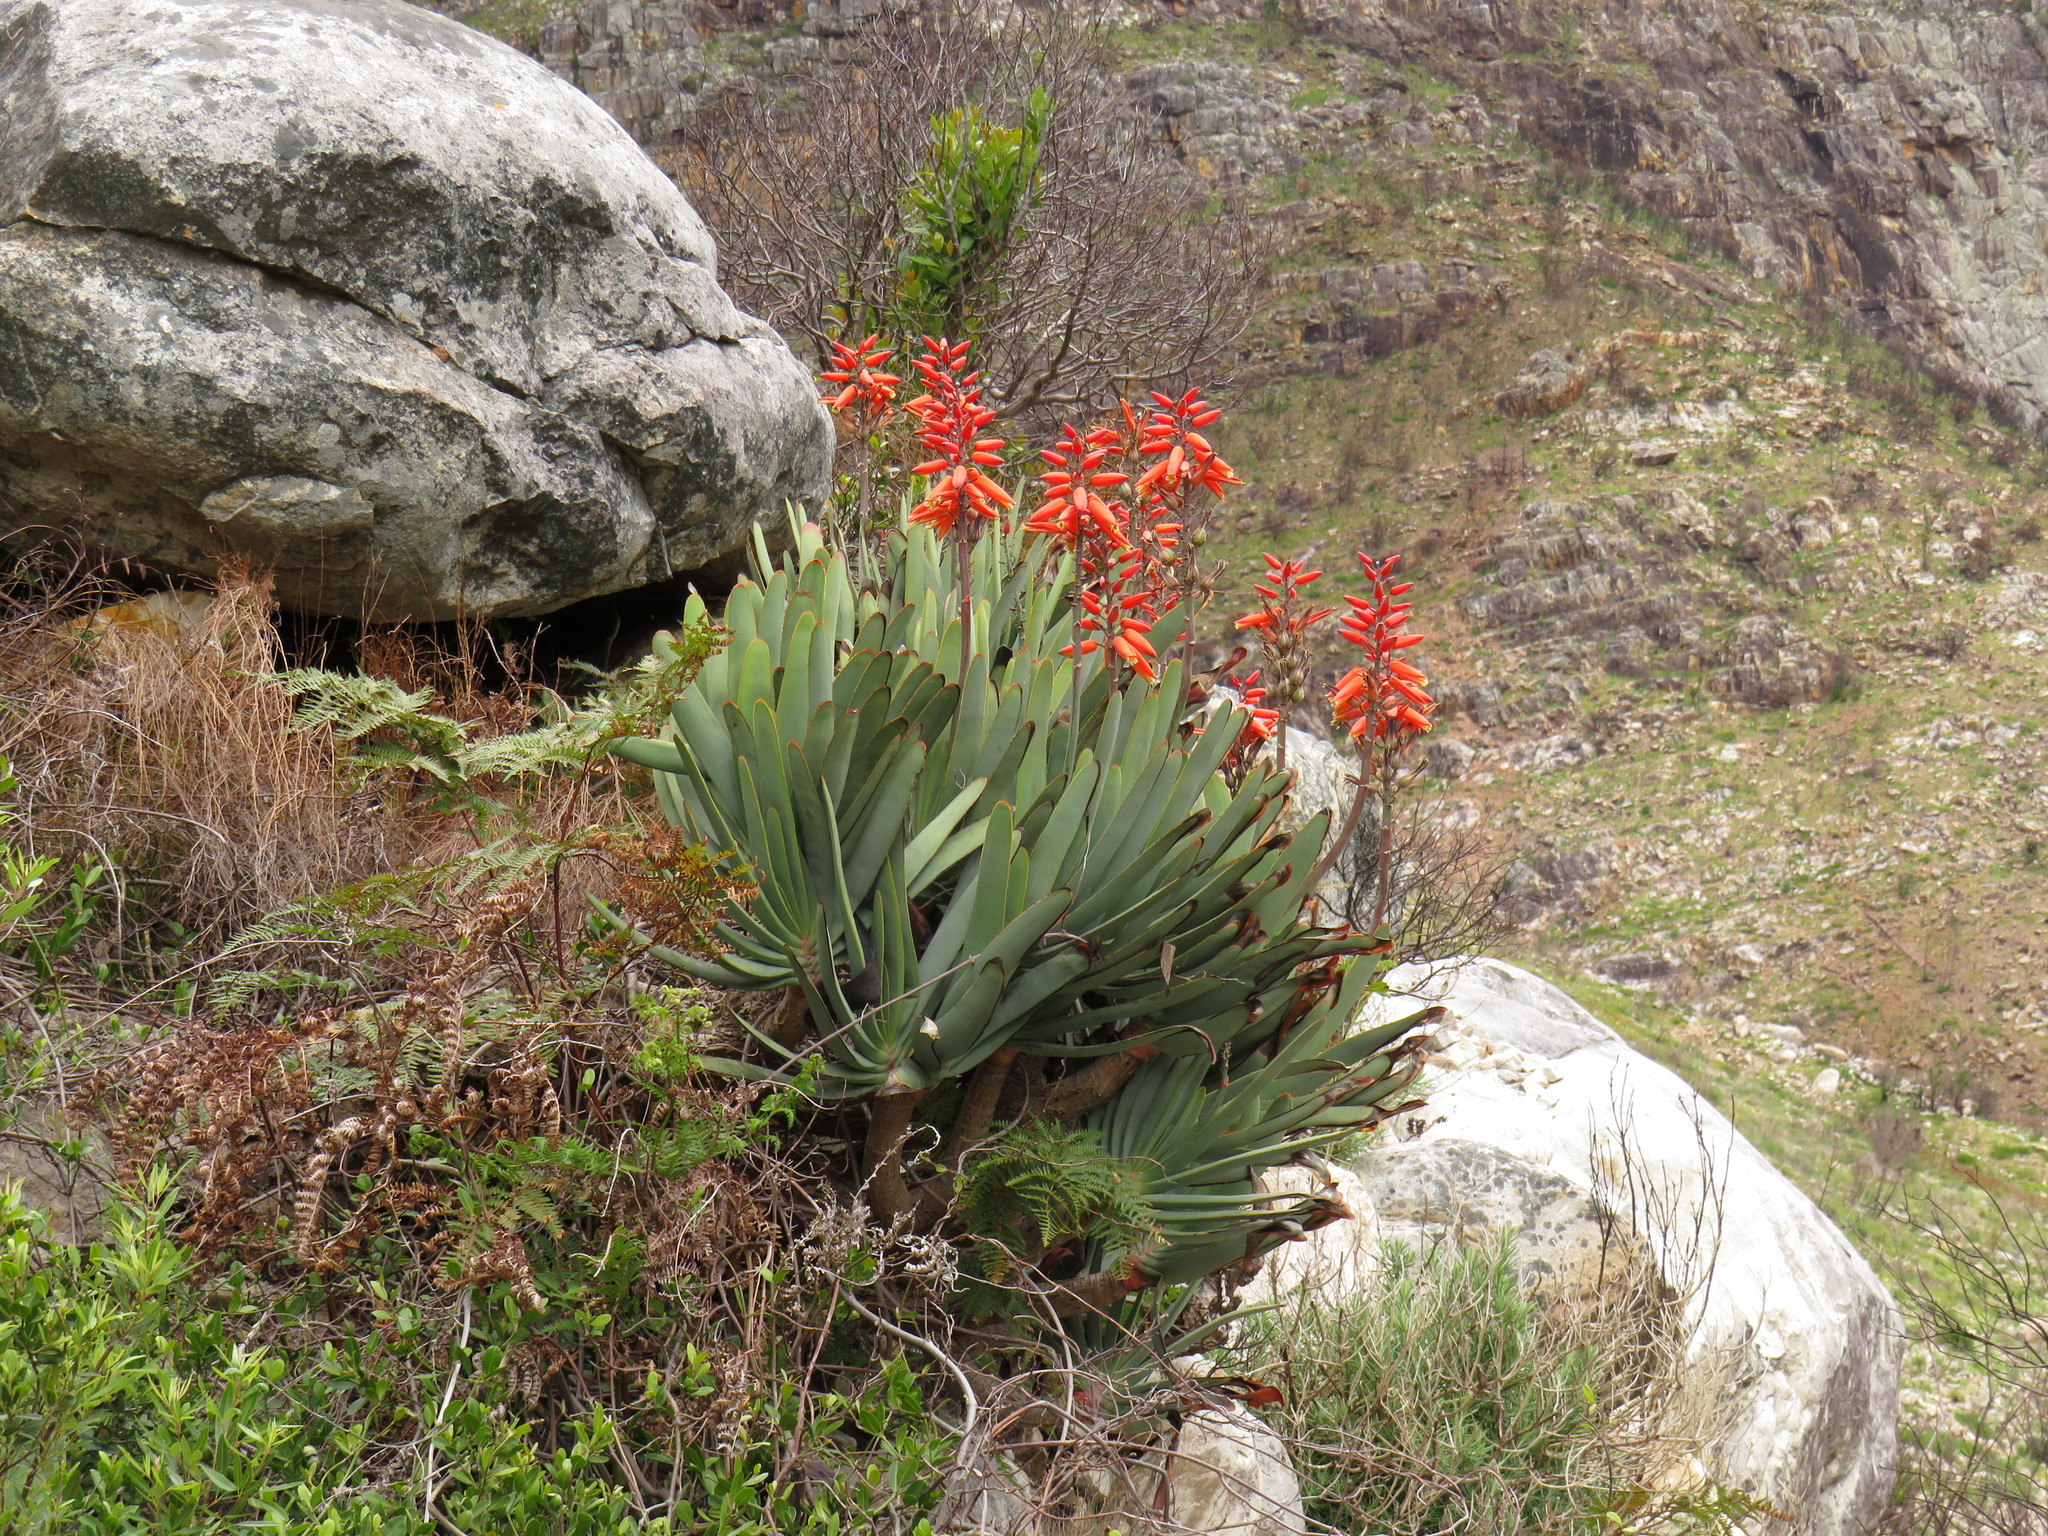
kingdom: Plantae
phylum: Tracheophyta
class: Liliopsida
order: Asparagales
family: Asphodelaceae
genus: Kumara
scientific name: Kumara plicatilis
